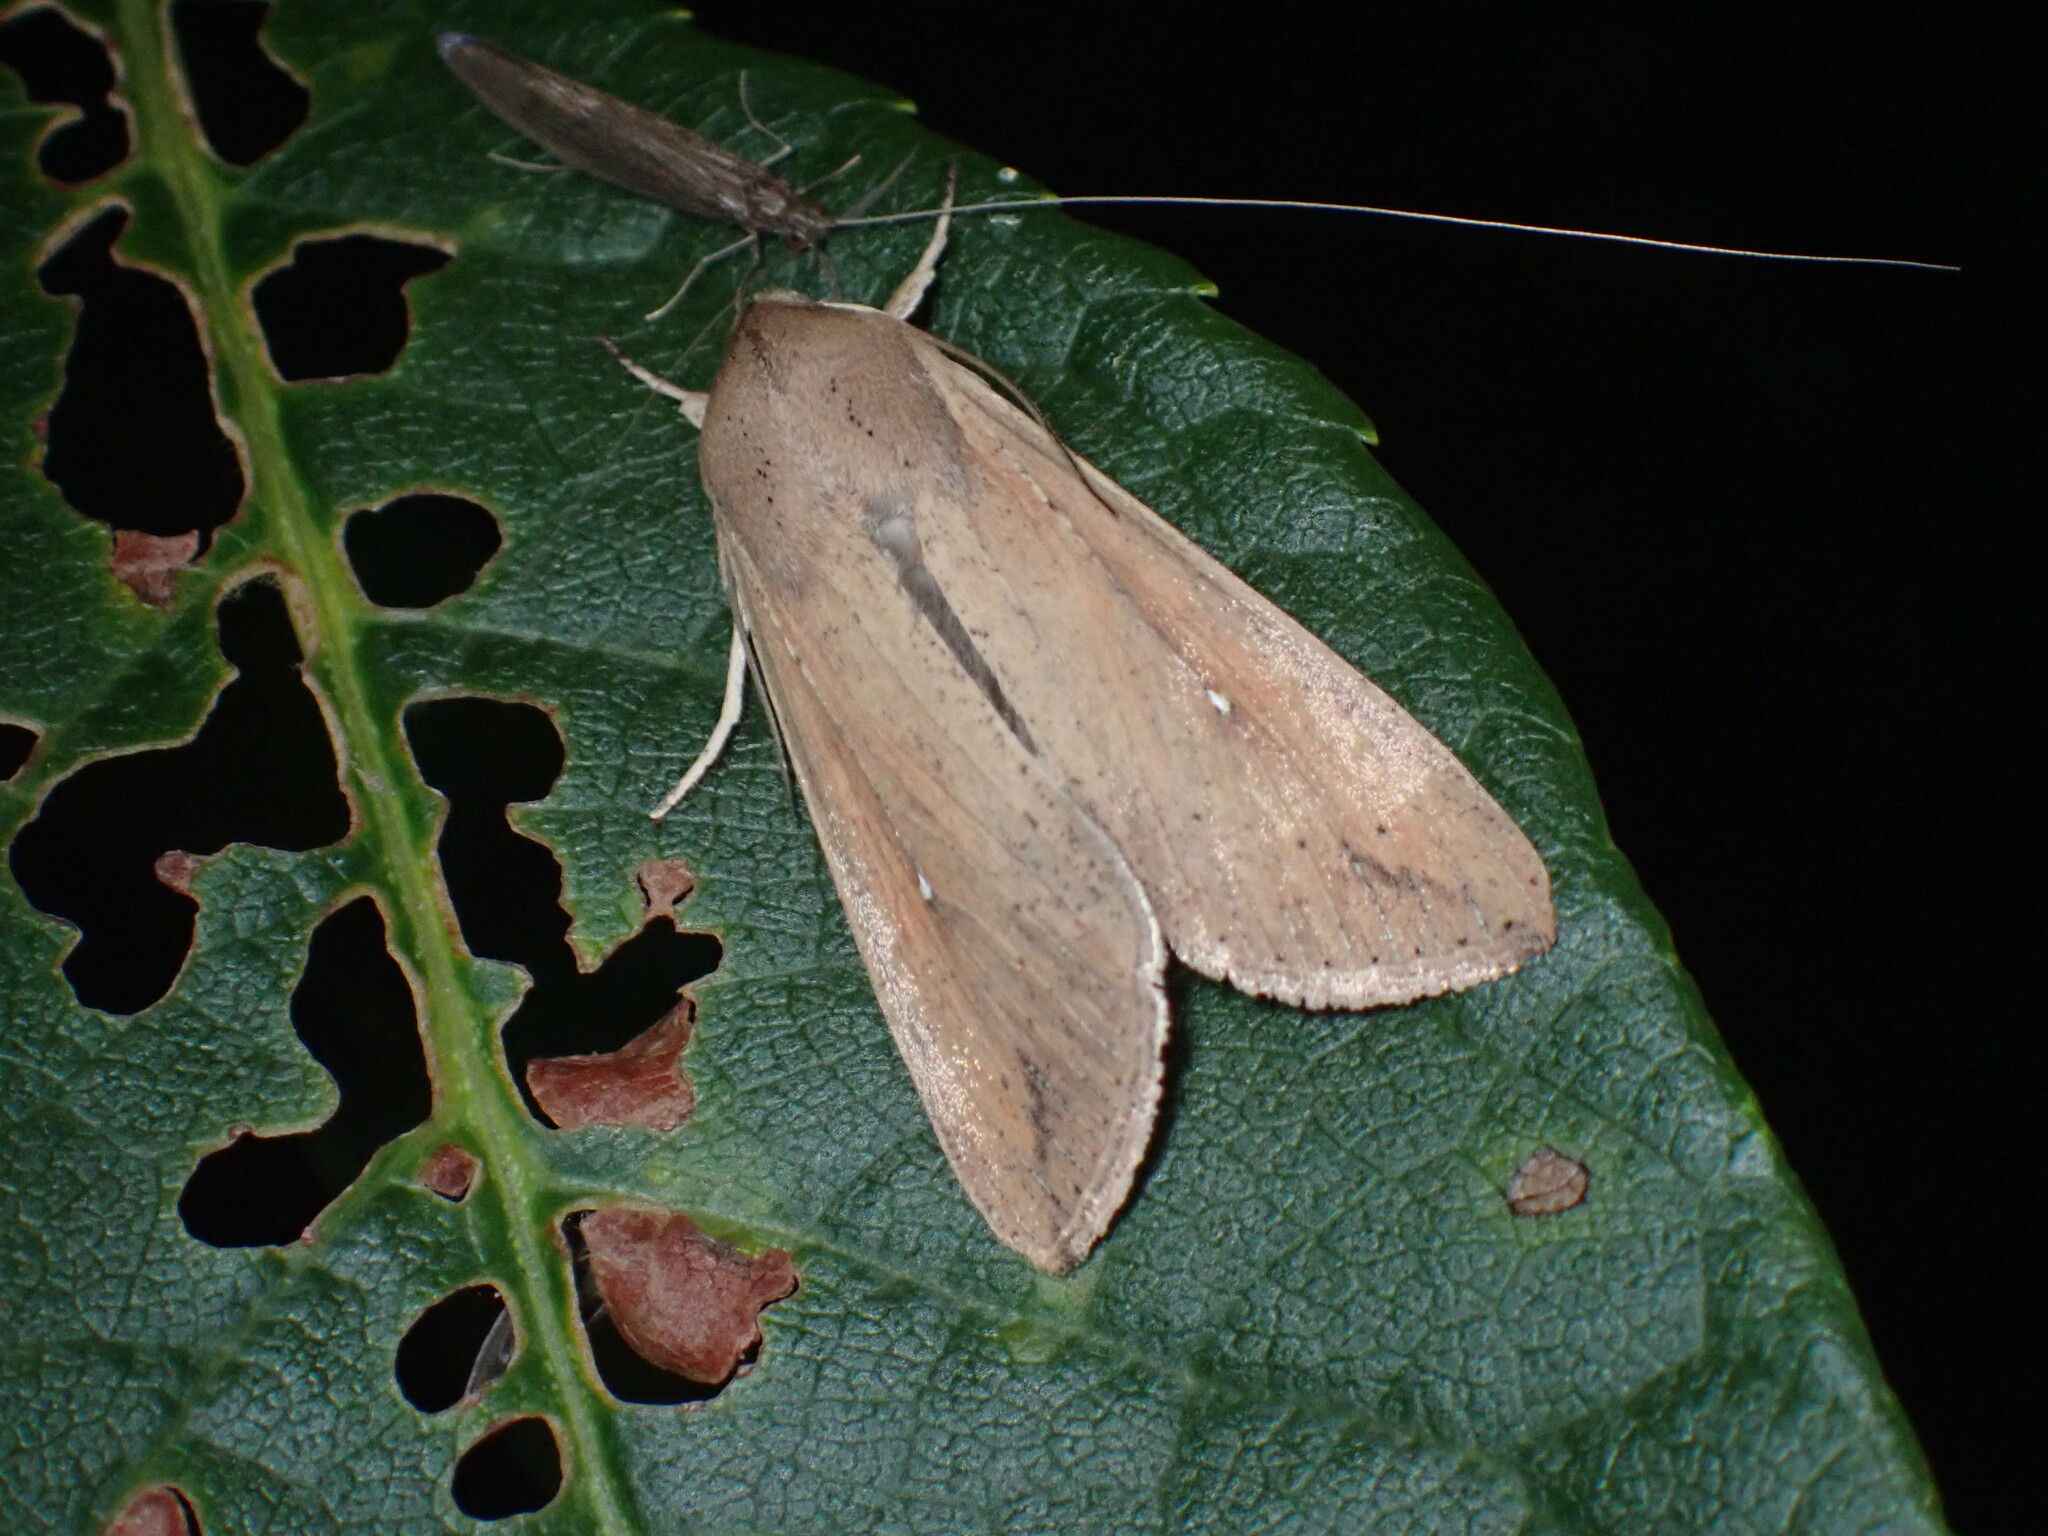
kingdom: Animalia
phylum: Arthropoda
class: Insecta
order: Lepidoptera
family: Noctuidae
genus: Mythimna
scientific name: Mythimna unipuncta
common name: White-speck
